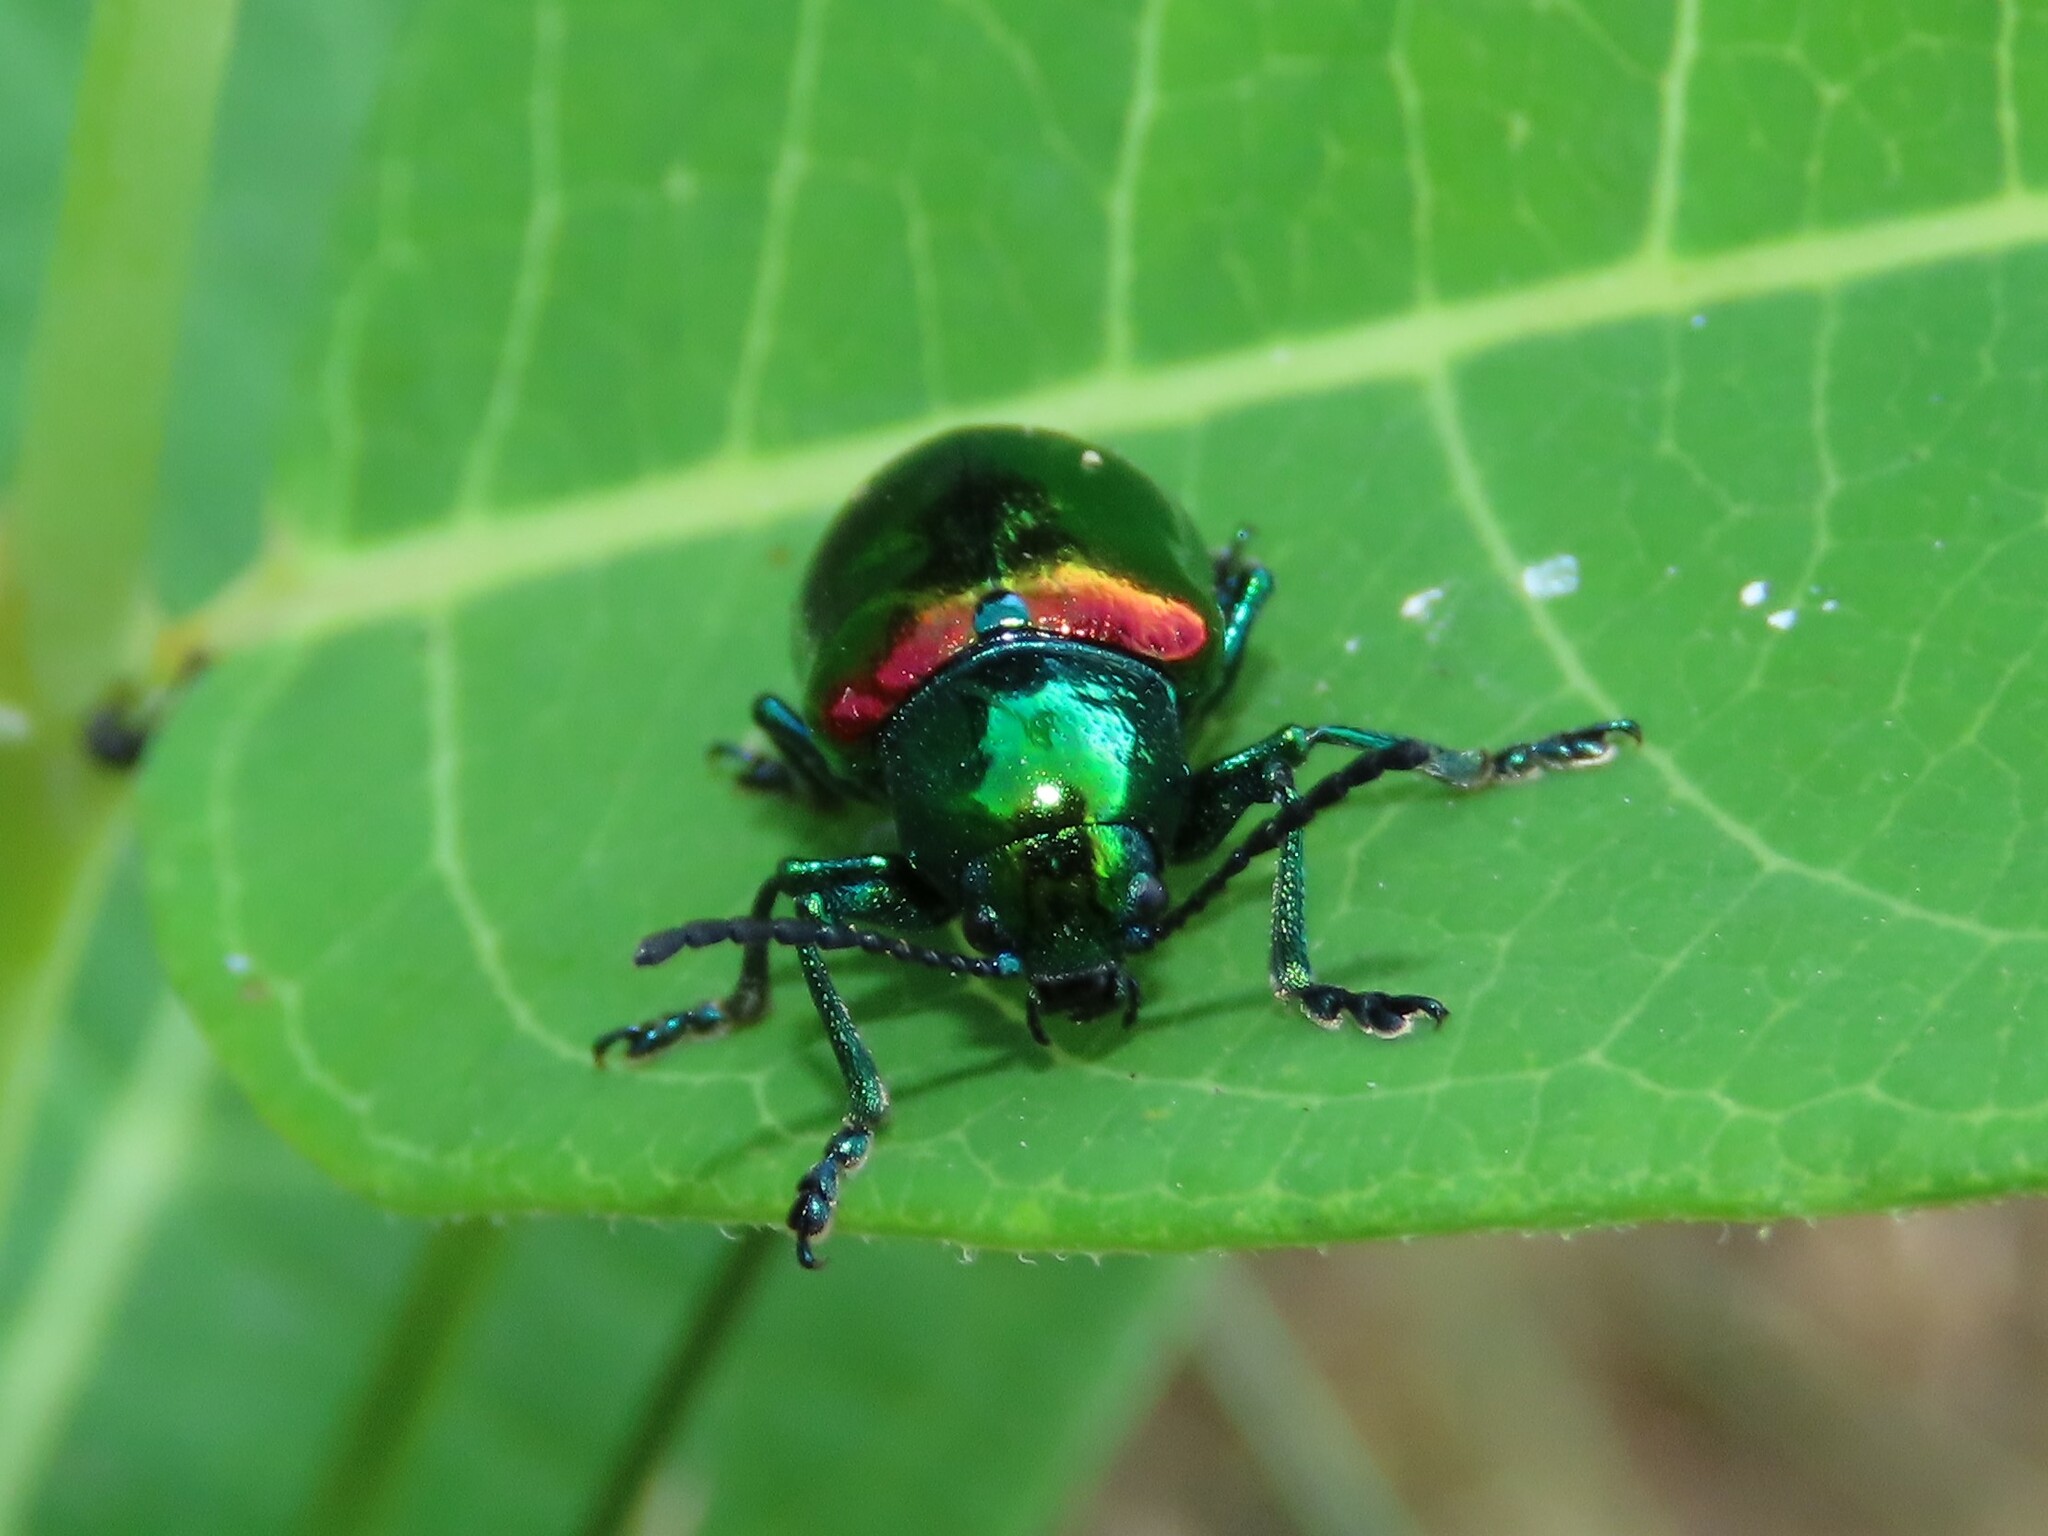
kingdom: Animalia
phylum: Arthropoda
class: Insecta
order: Coleoptera
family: Chrysomelidae
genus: Chrysochus
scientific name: Chrysochus auratus
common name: Dogbane leaf beetle
